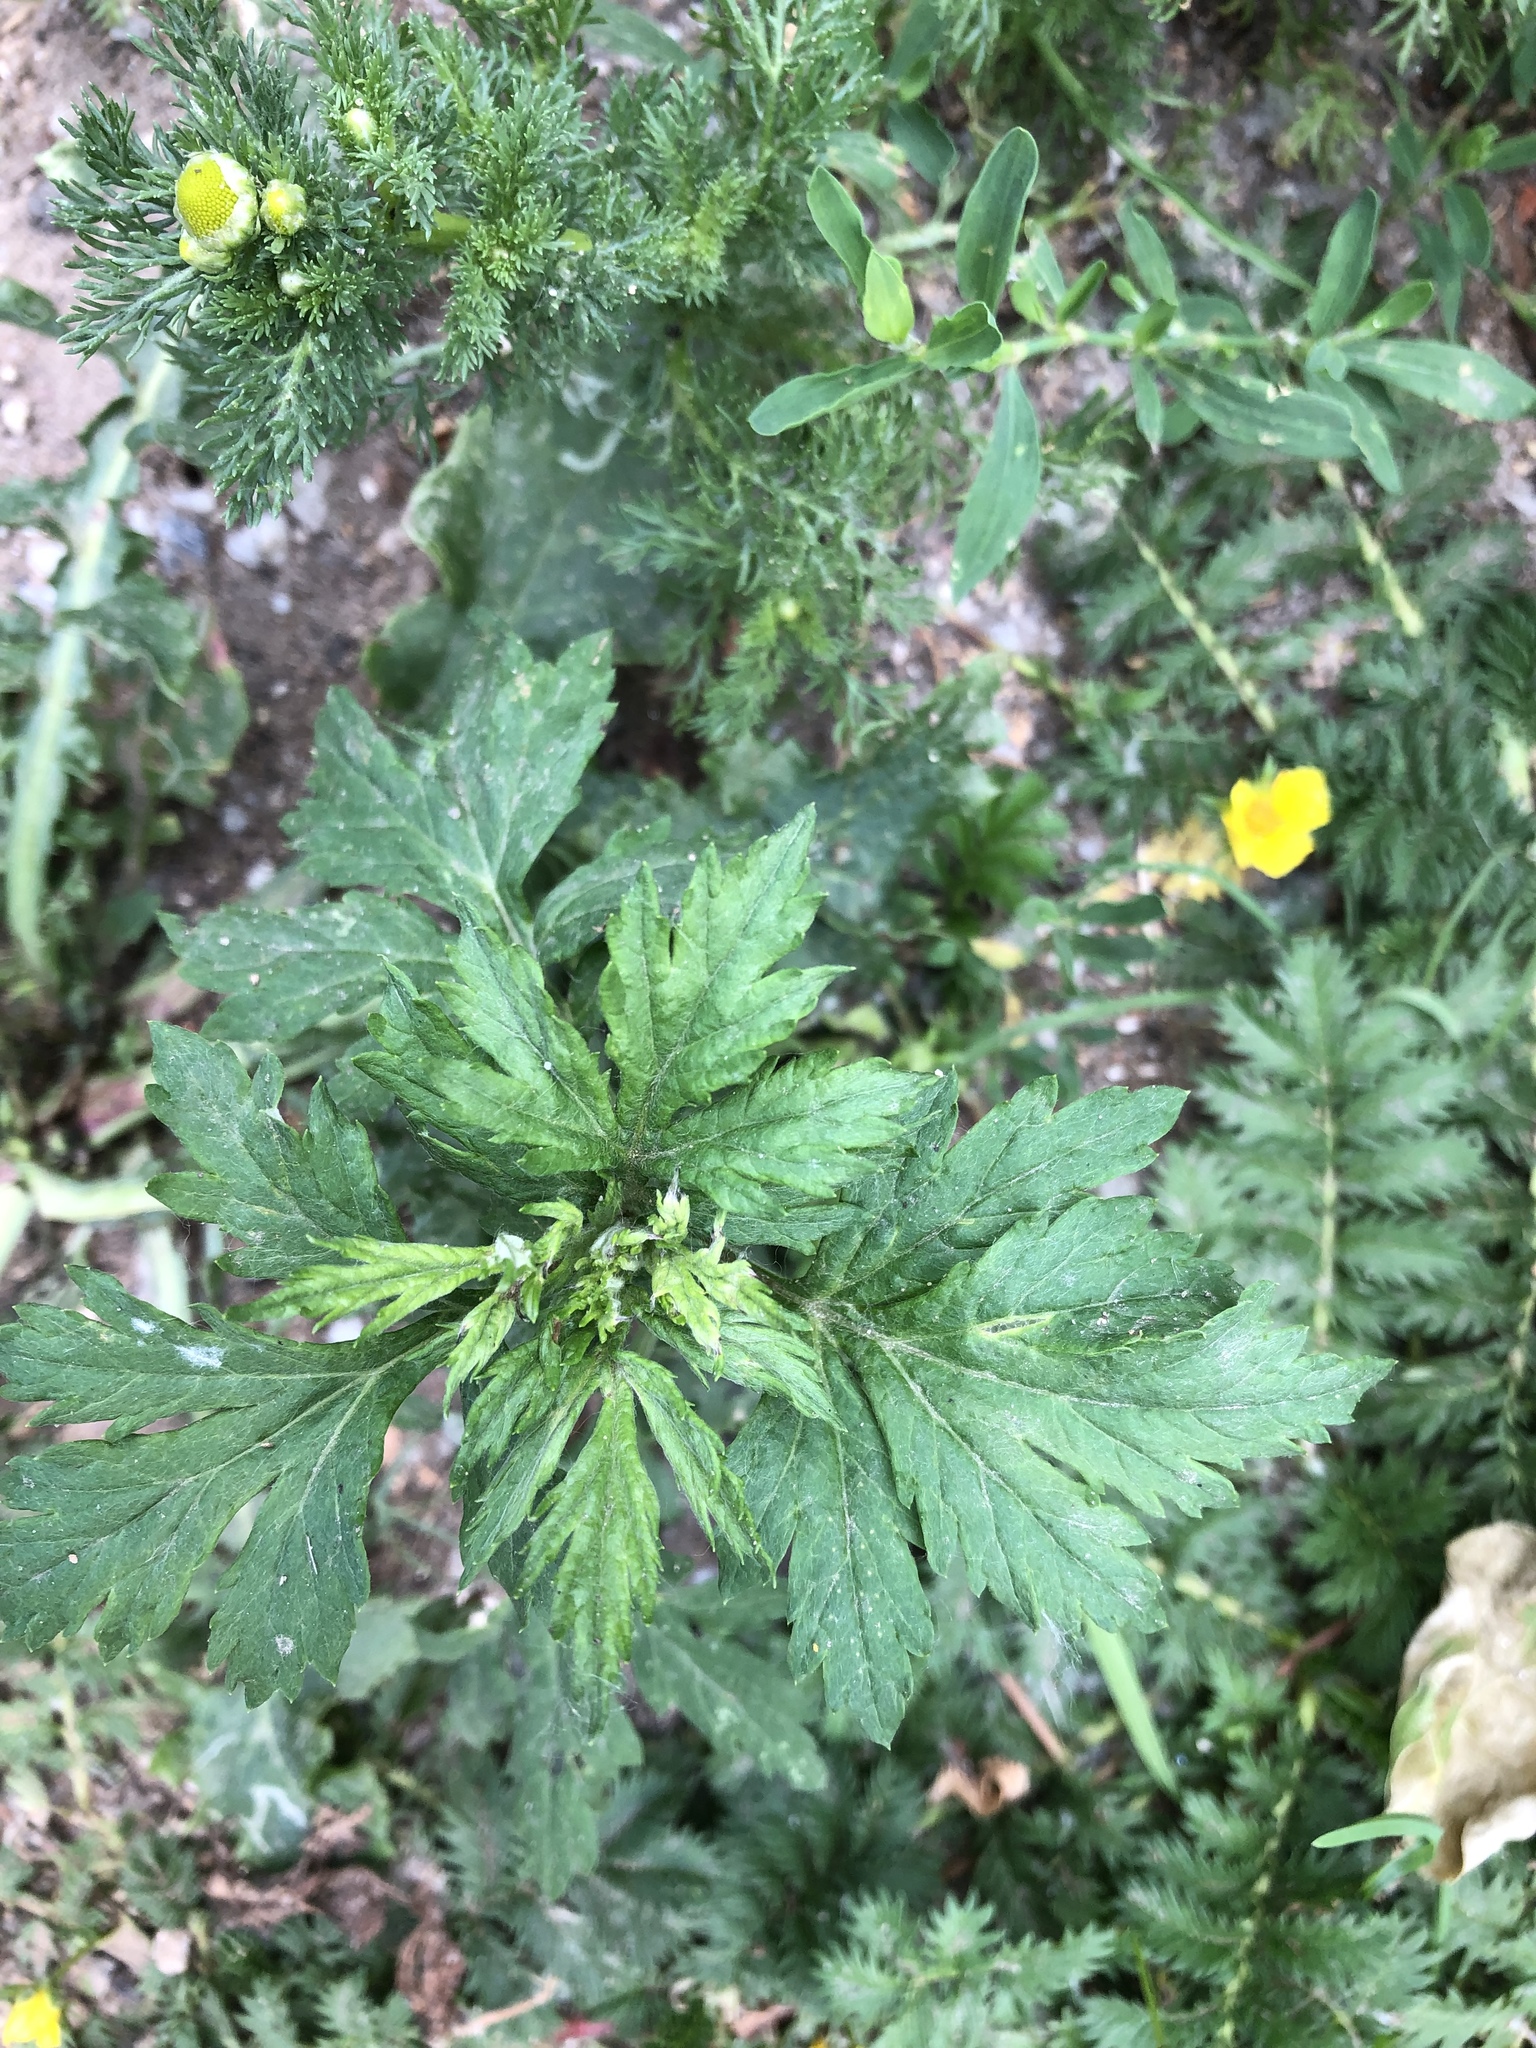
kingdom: Plantae
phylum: Tracheophyta
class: Magnoliopsida
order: Asterales
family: Asteraceae
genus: Artemisia
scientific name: Artemisia vulgaris
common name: Mugwort
